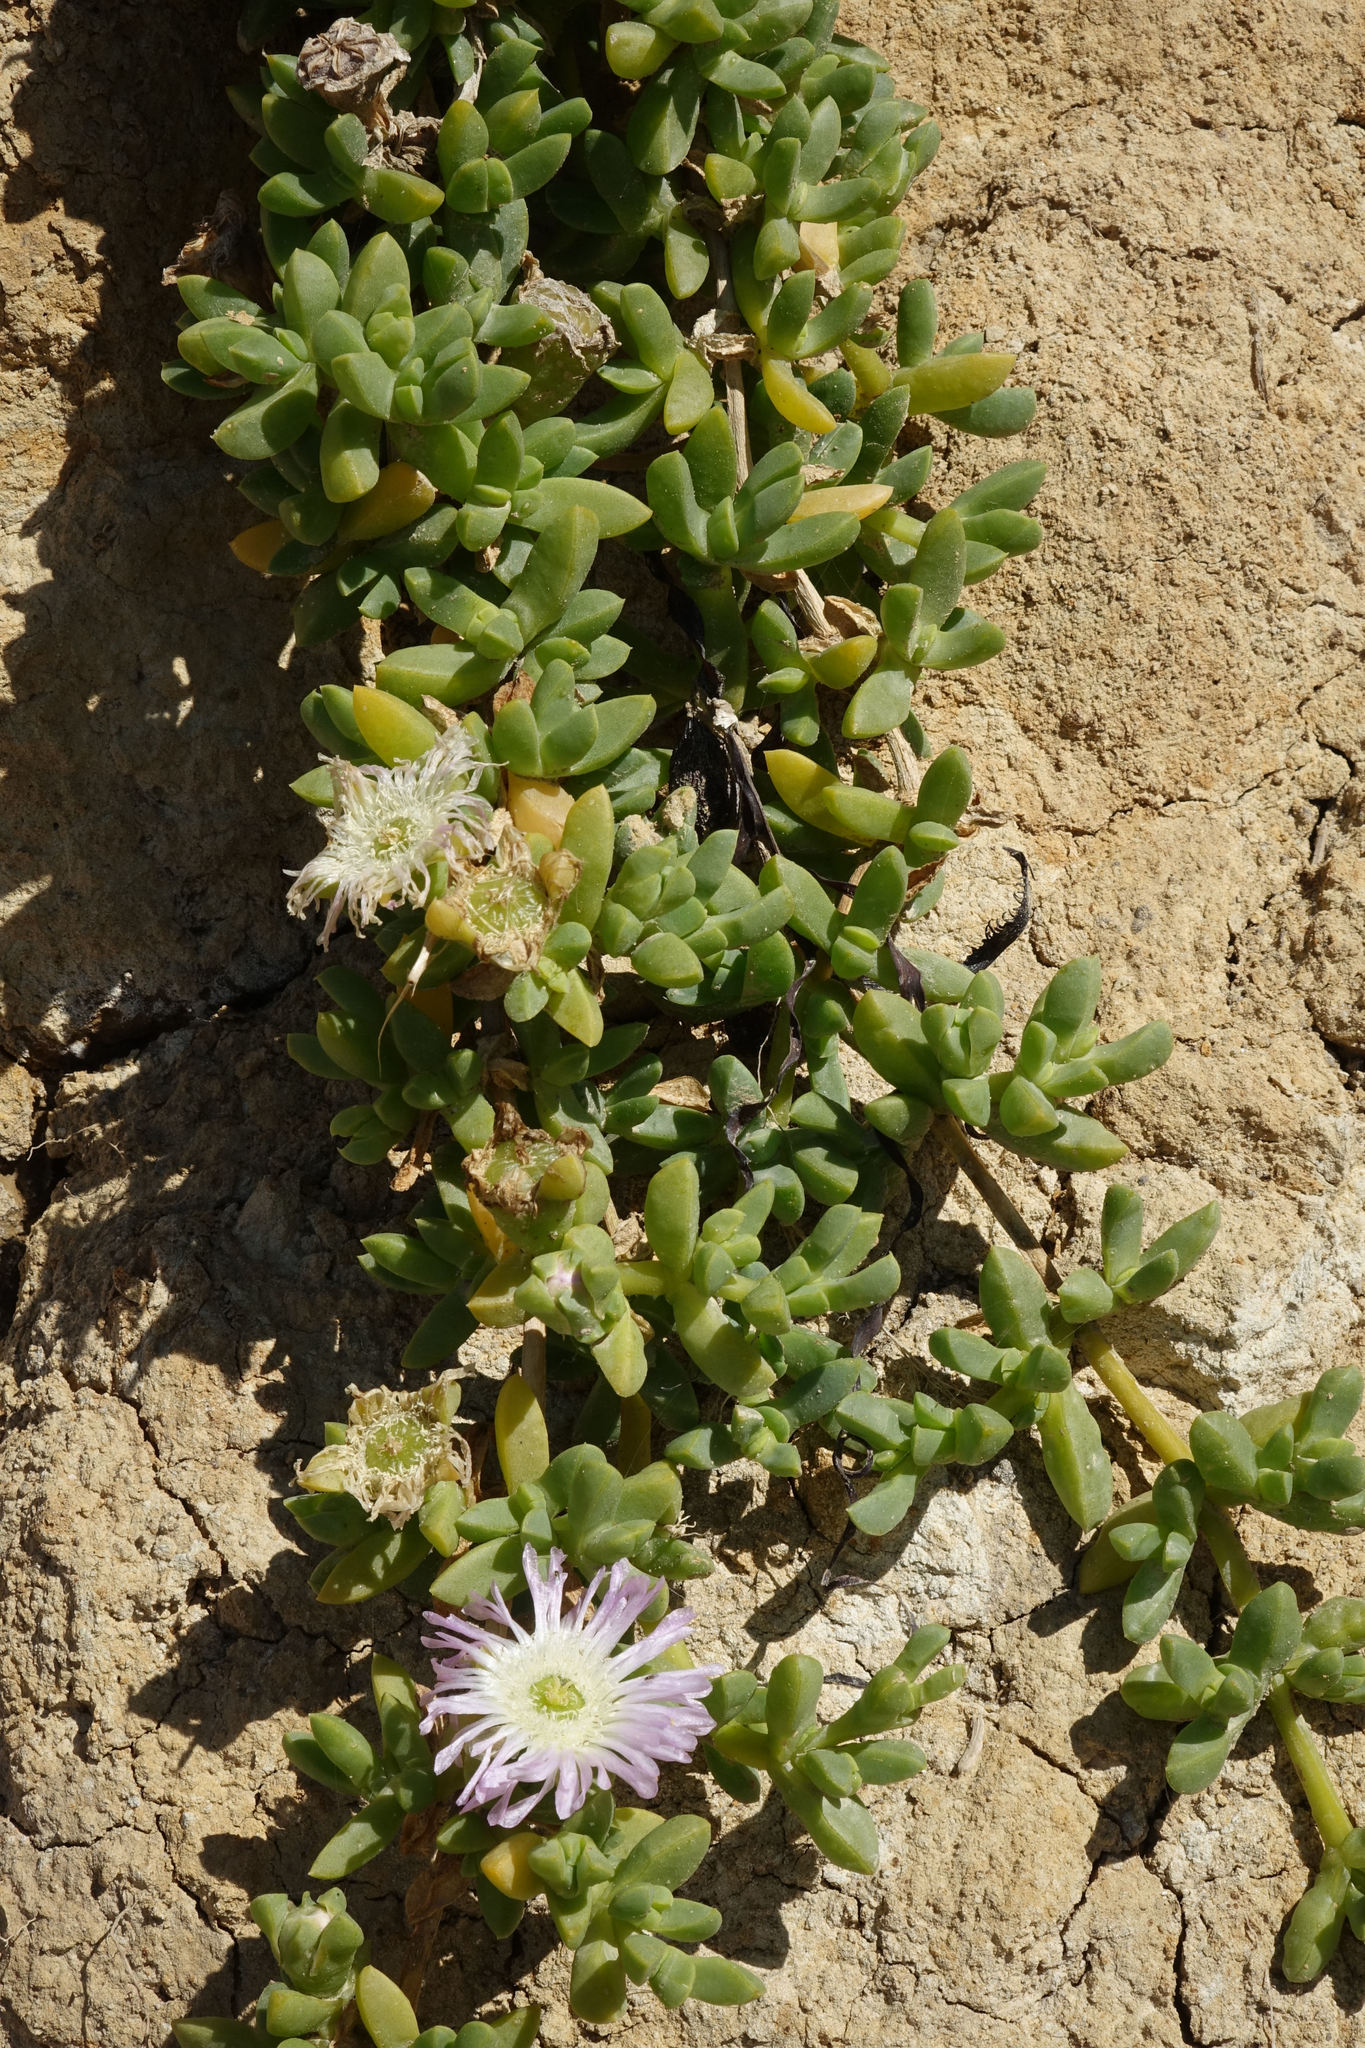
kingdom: Plantae
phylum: Tracheophyta
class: Magnoliopsida
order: Caryophyllales
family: Aizoaceae
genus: Disphyma
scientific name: Disphyma australe
